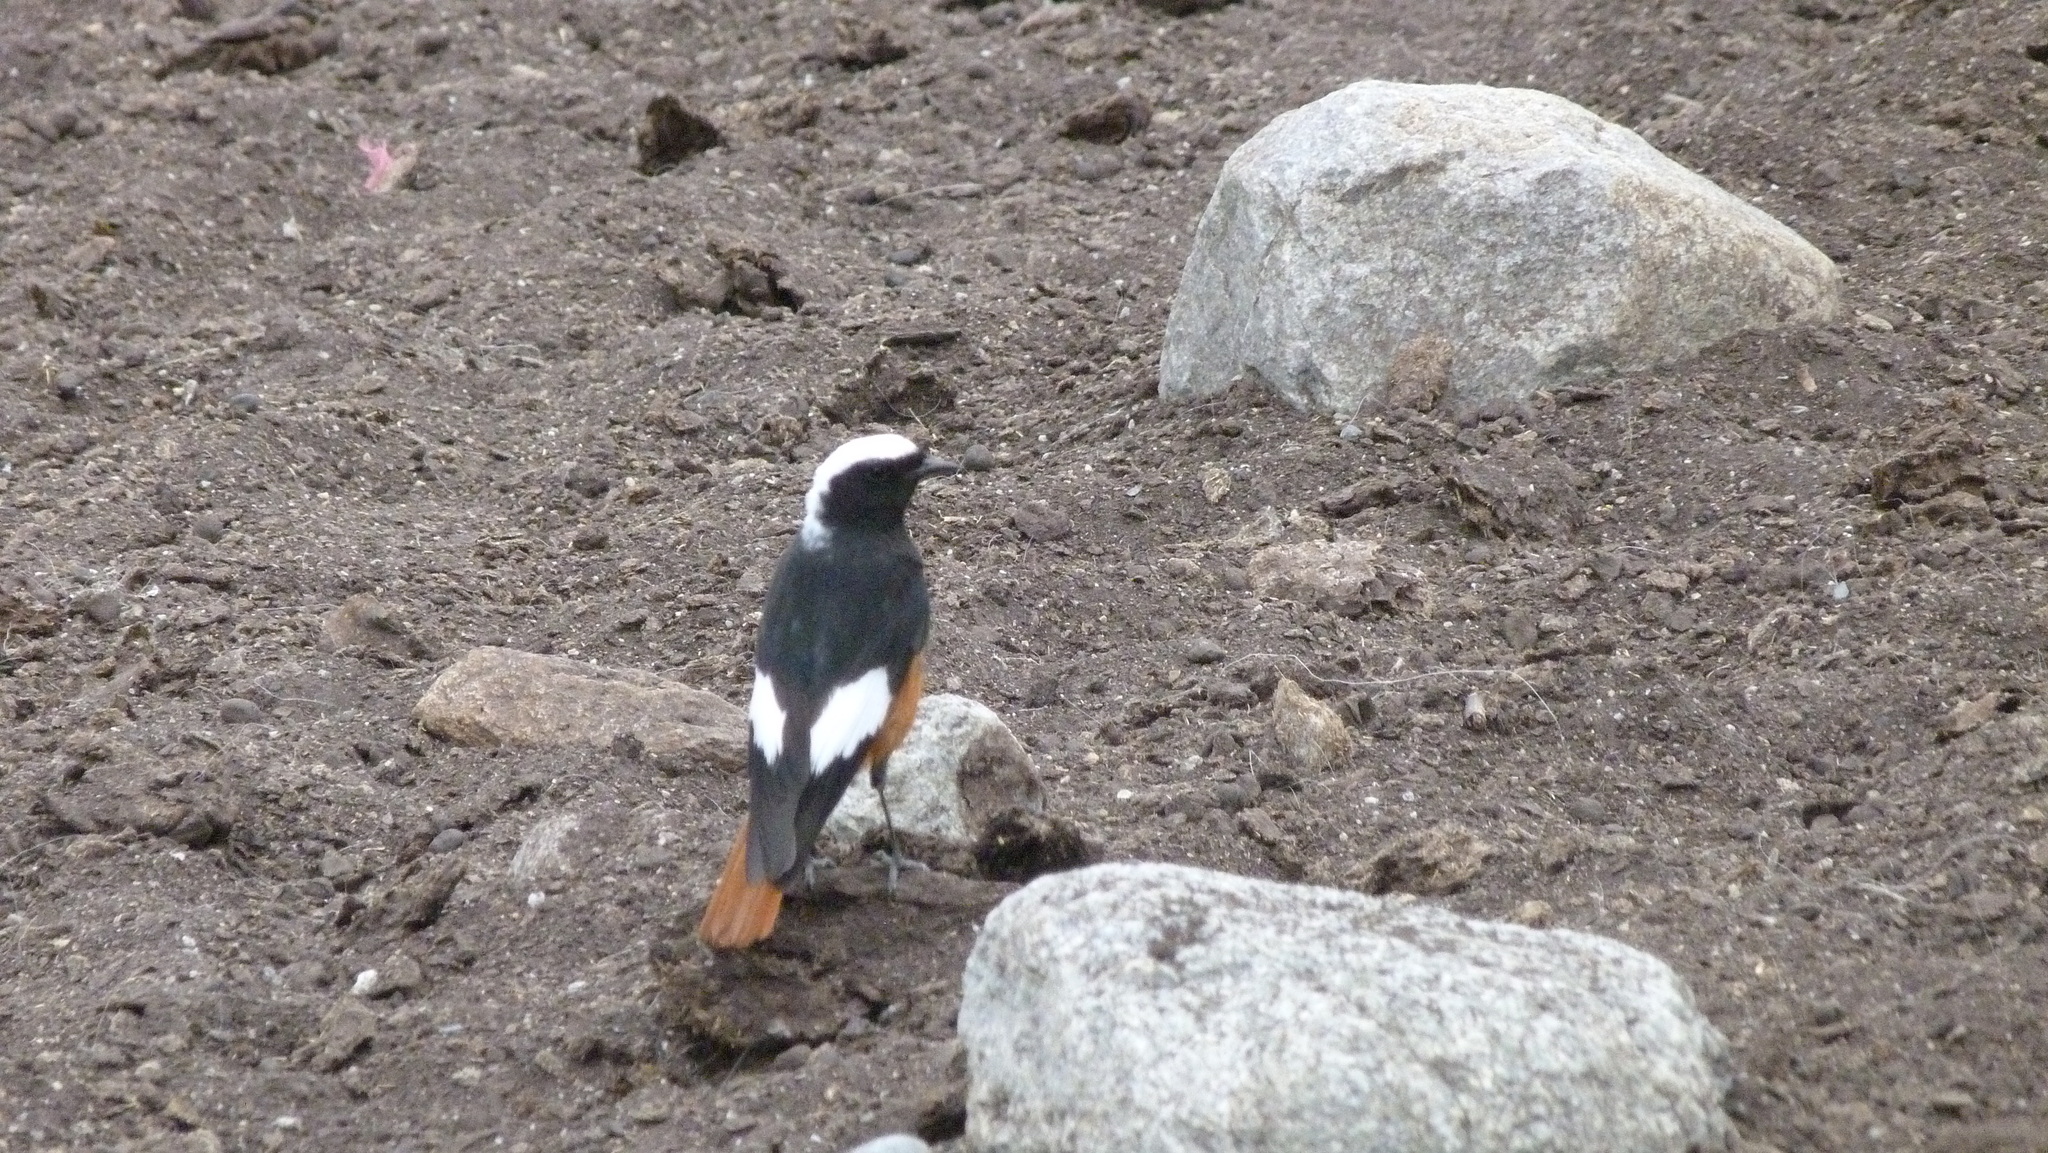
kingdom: Animalia
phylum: Chordata
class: Aves
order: Passeriformes
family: Muscicapidae
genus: Phoenicurus
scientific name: Phoenicurus erythrogastrus
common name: Güldenstädt's redstart
